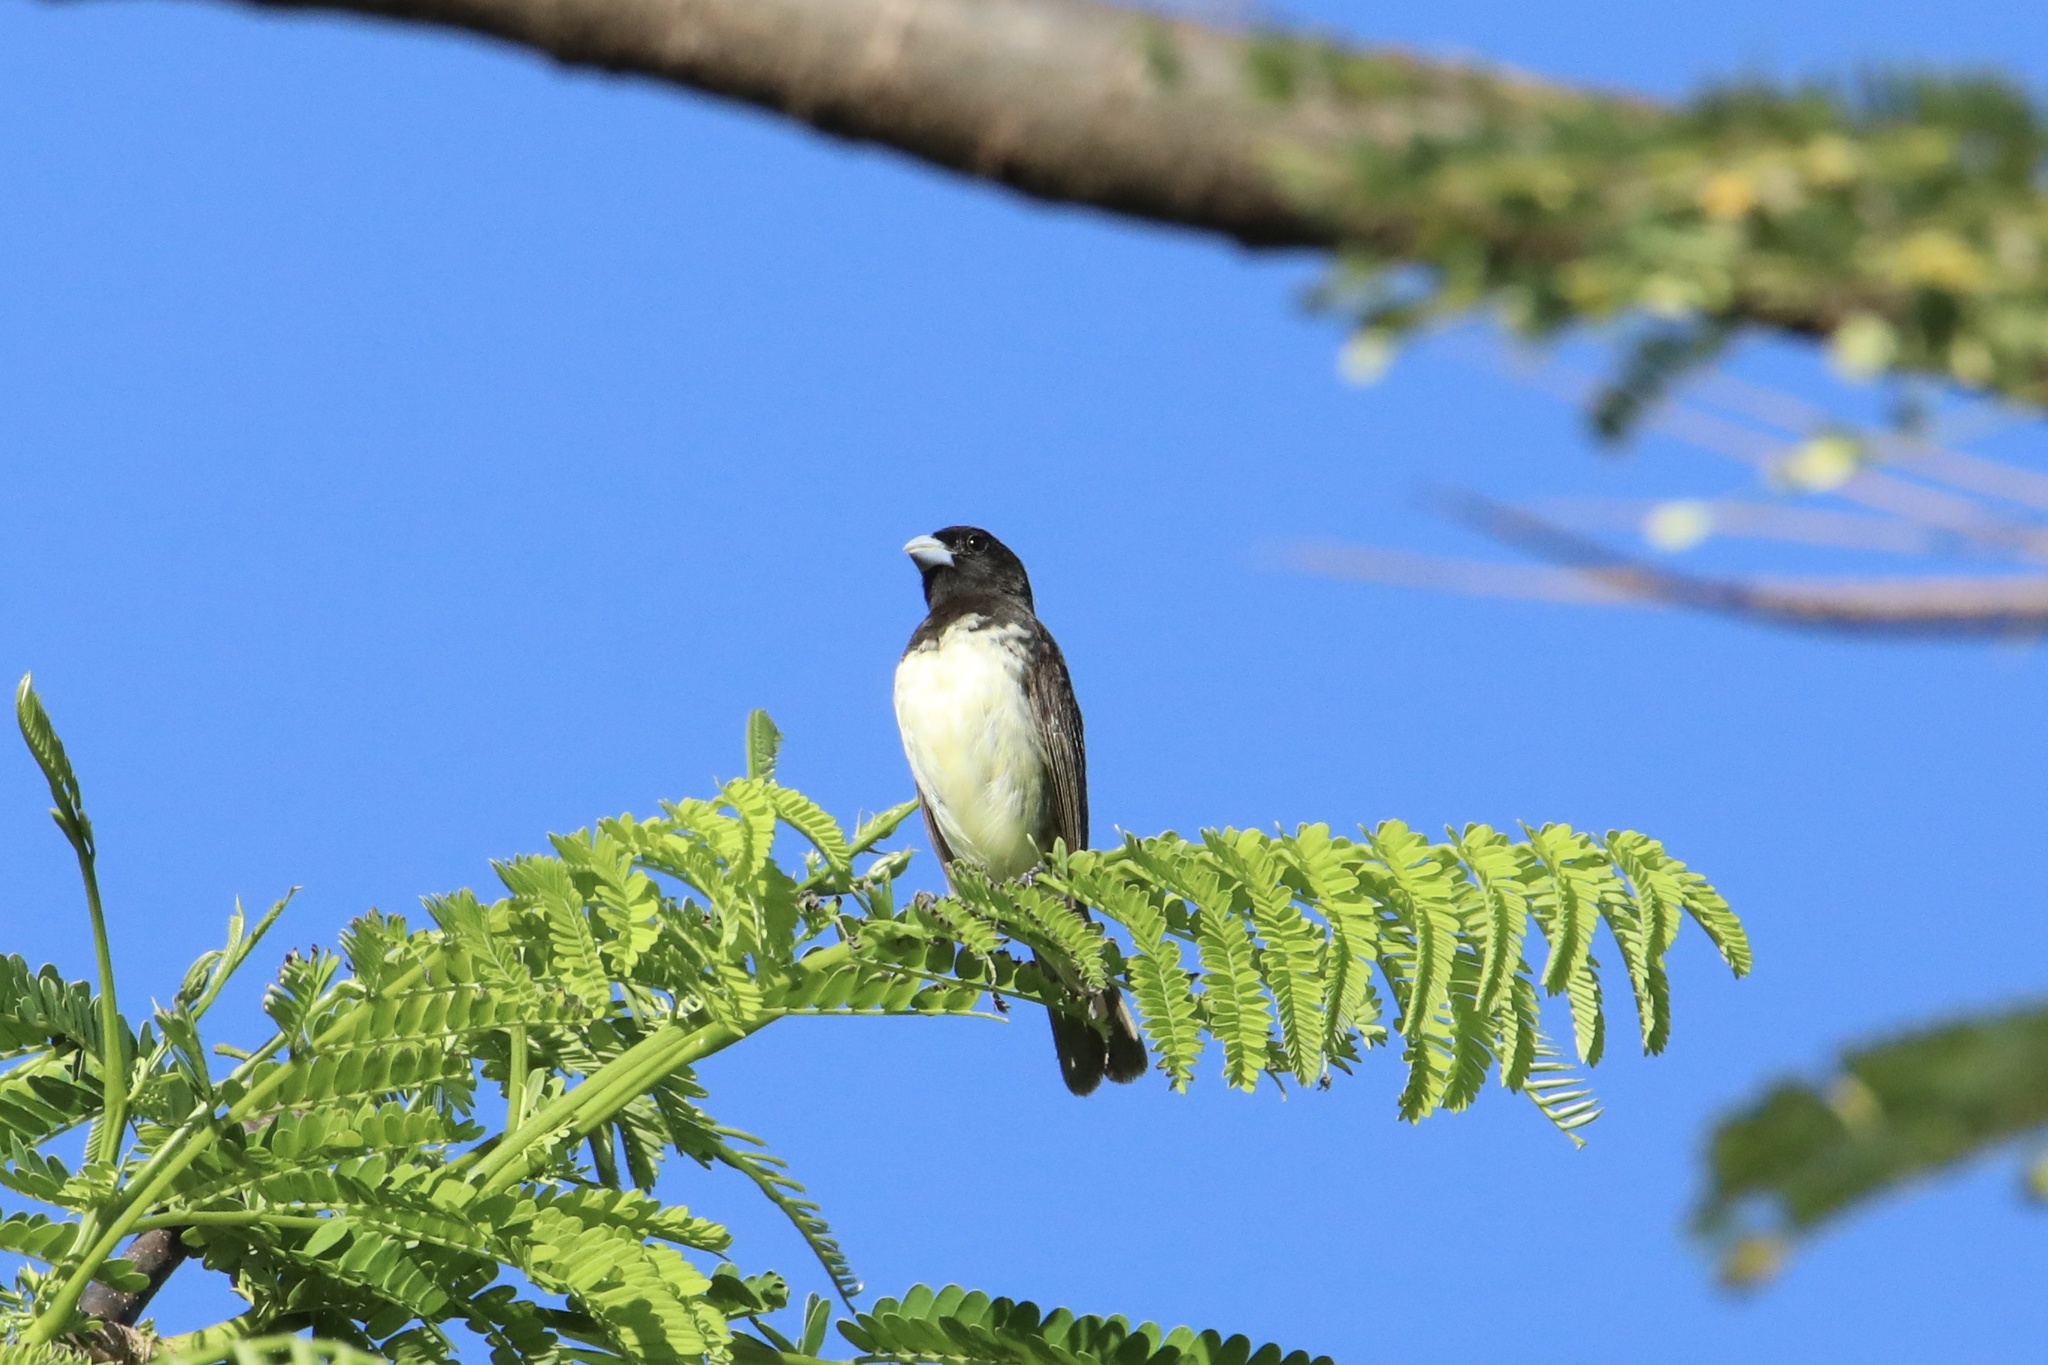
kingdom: Animalia
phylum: Chordata
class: Aves
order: Passeriformes
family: Thraupidae
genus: Sporophila
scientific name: Sporophila nigricollis
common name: Yellow-bellied seedeater
